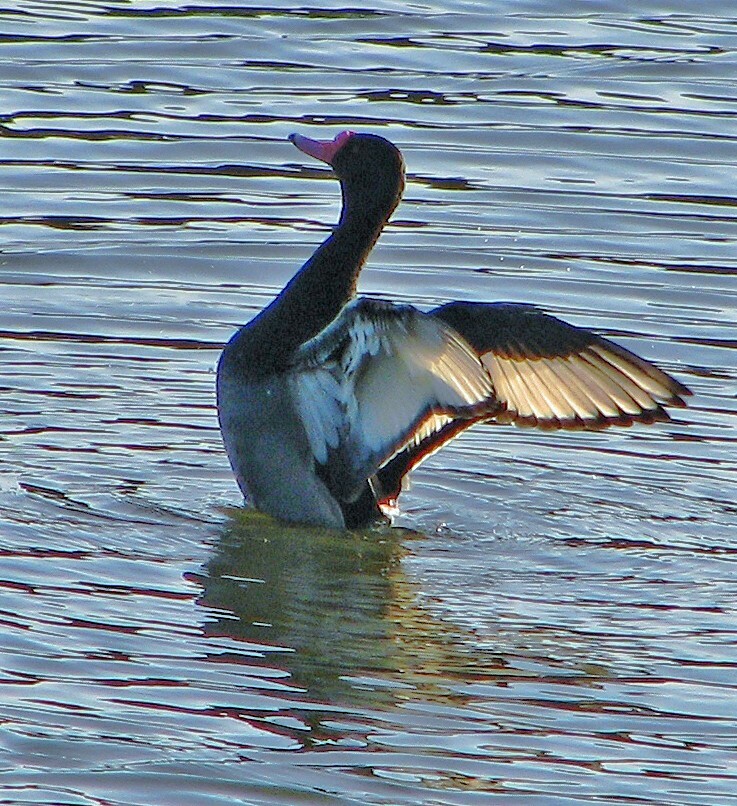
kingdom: Animalia
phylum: Chordata
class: Aves
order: Anseriformes
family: Anatidae
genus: Netta
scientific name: Netta peposaca
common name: Rosy-billed pochard
